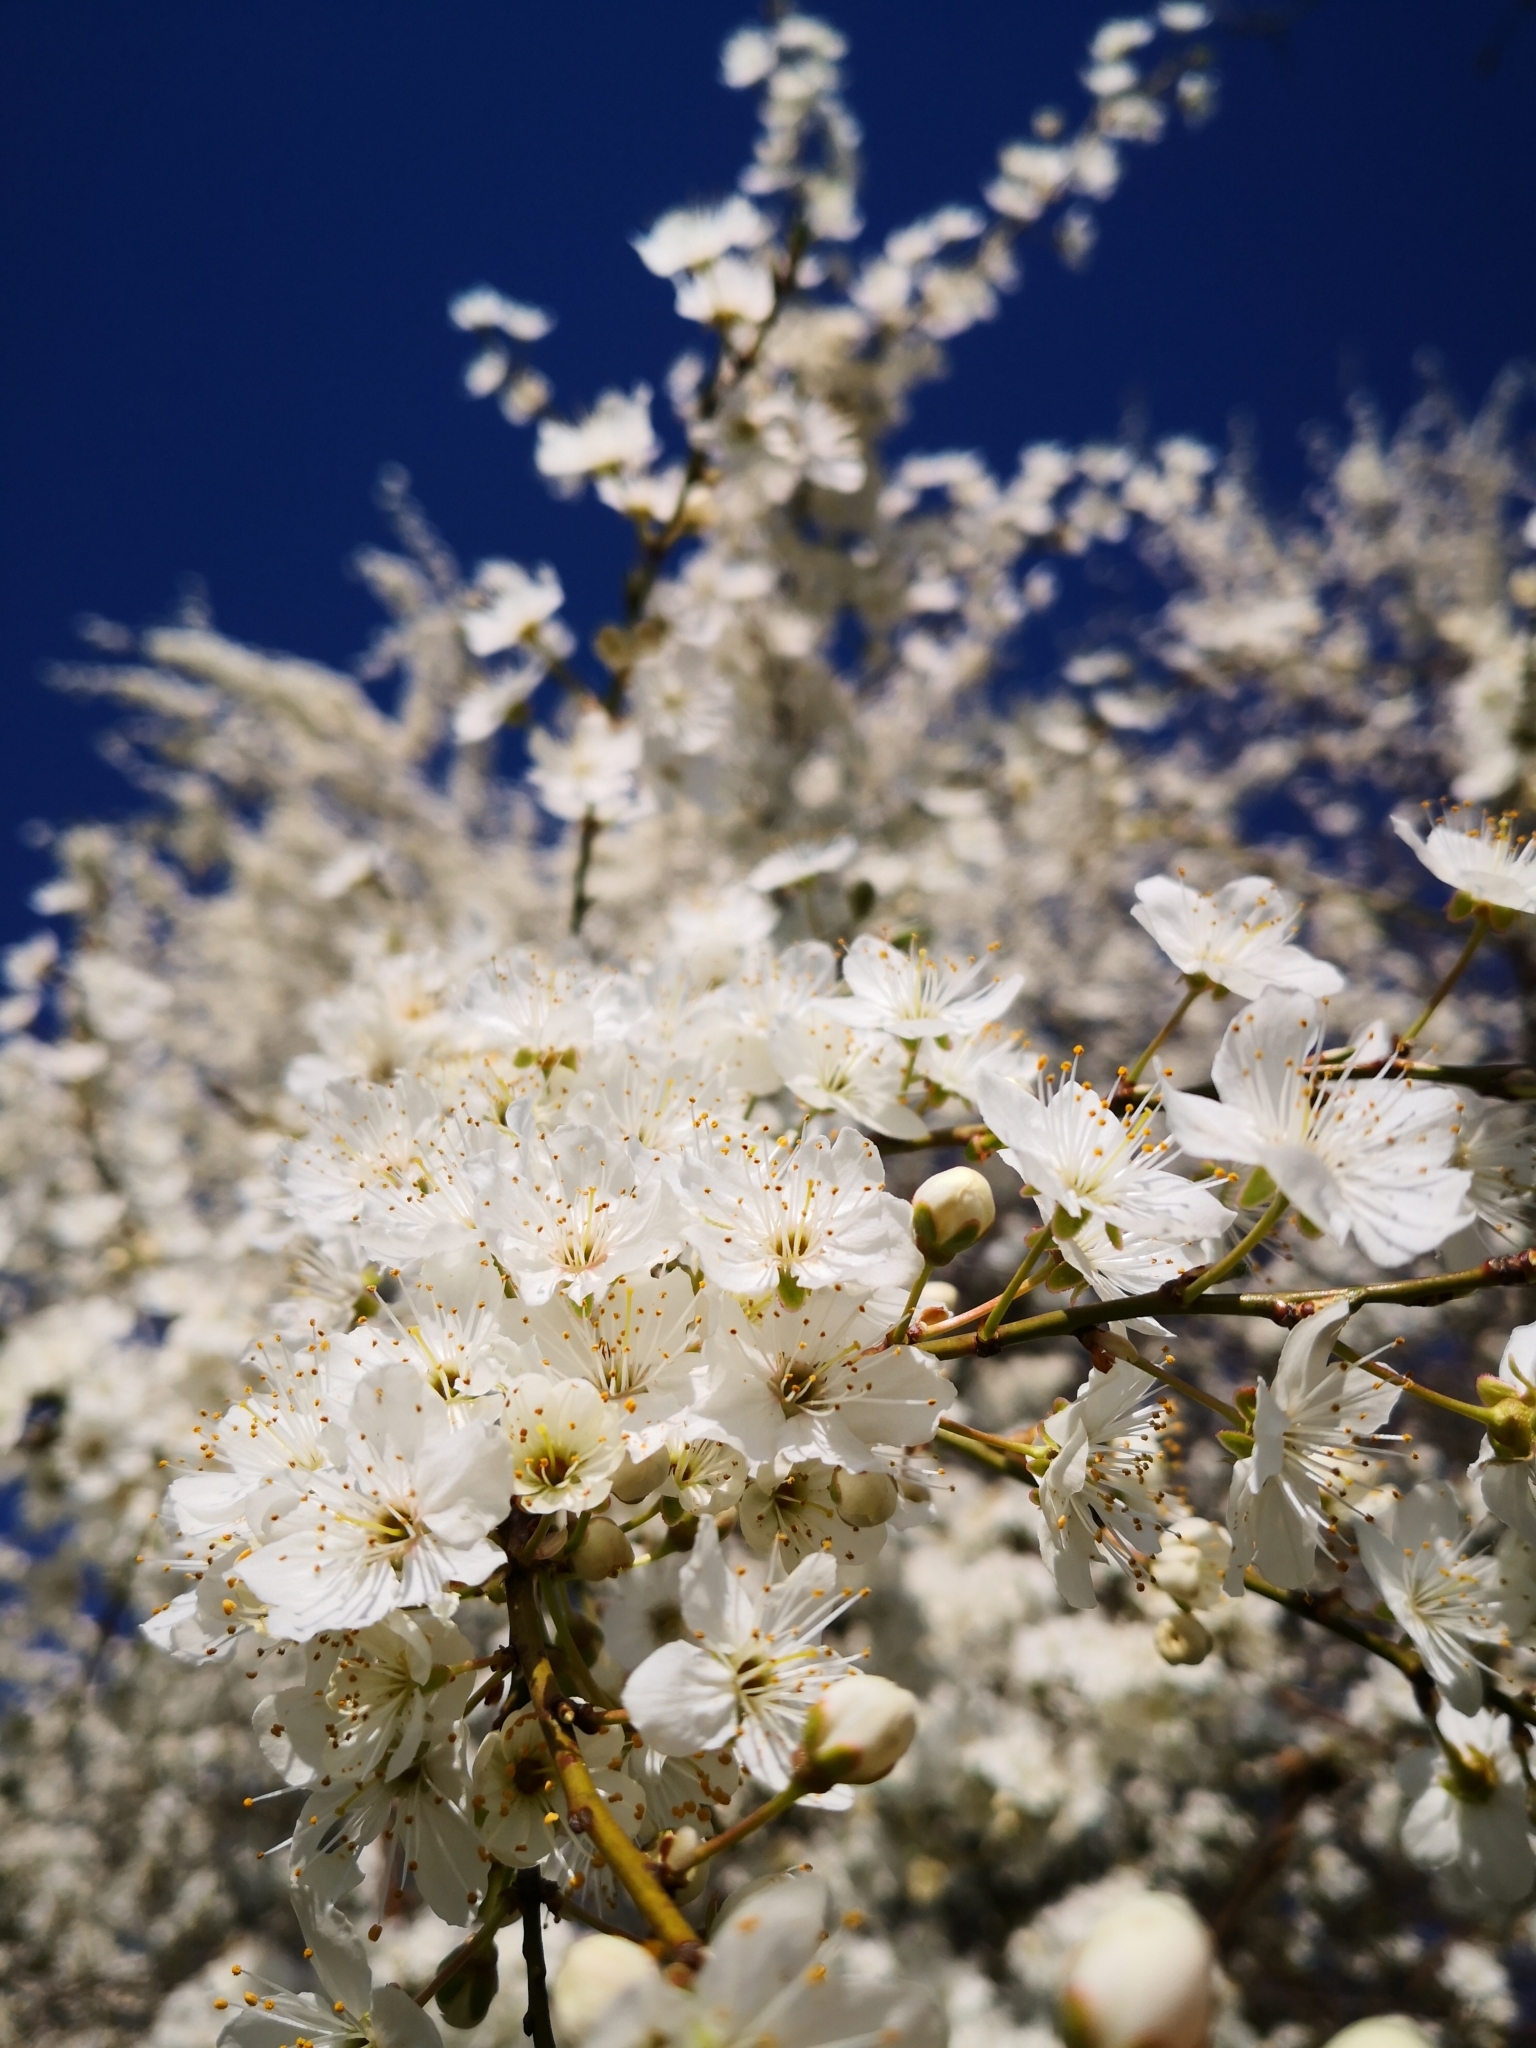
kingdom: Plantae
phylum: Tracheophyta
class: Magnoliopsida
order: Rosales
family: Rosaceae
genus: Prunus
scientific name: Prunus cerasifera
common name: Cherry plum
